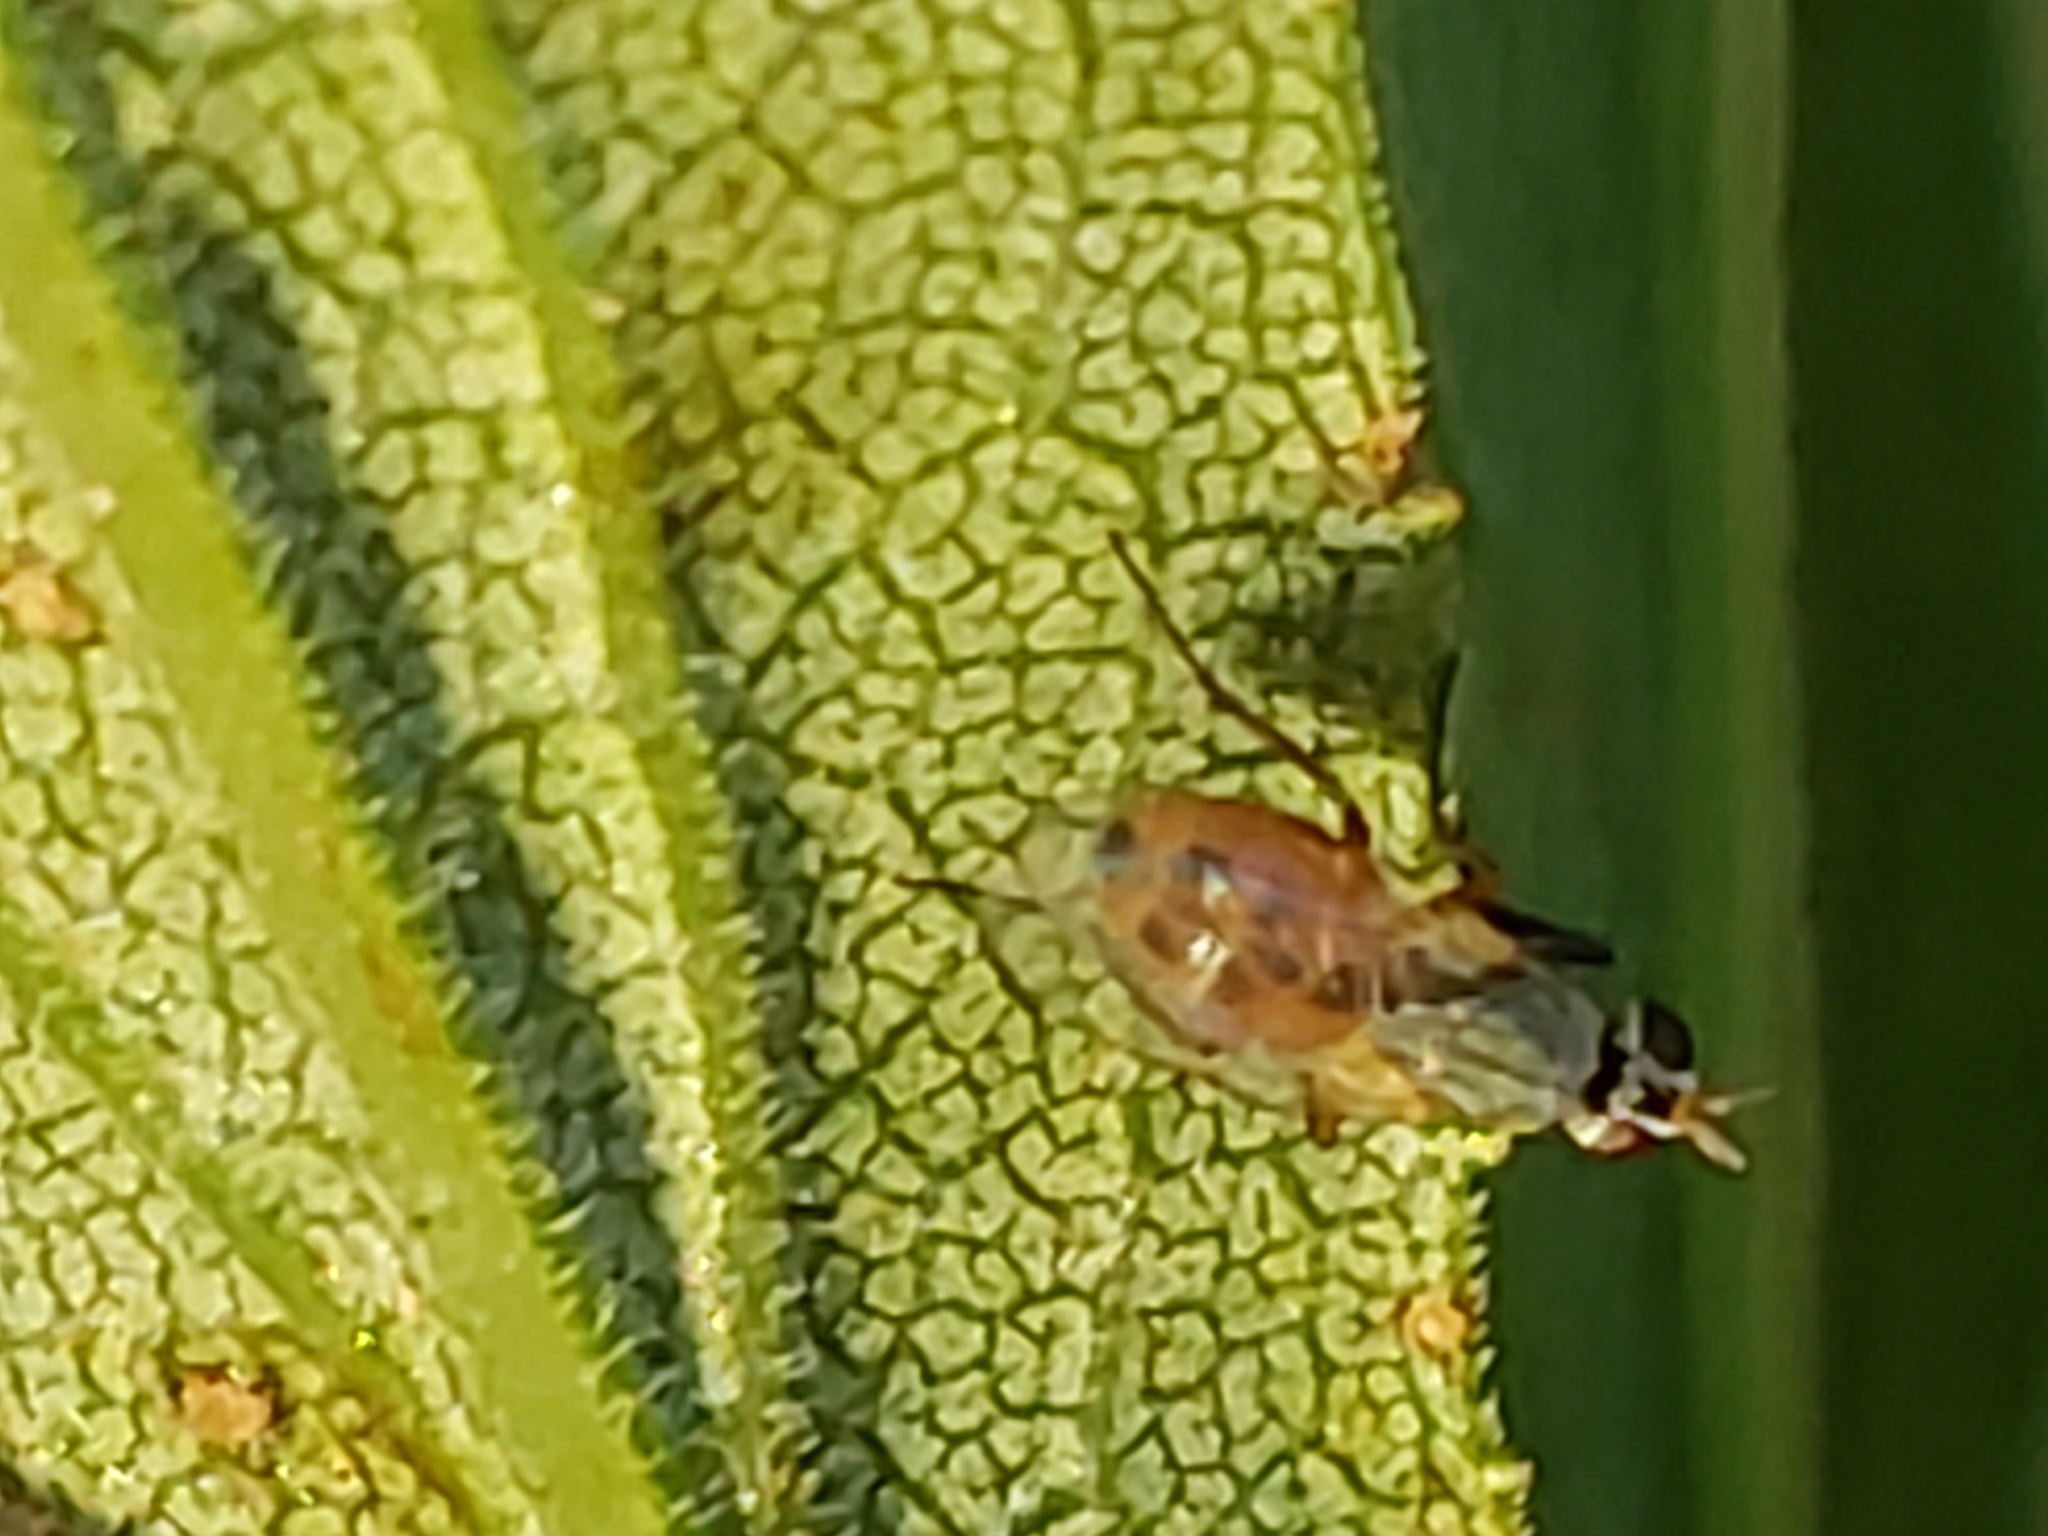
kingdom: Animalia
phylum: Arthropoda
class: Insecta
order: Diptera
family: Muscidae
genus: Atherigona
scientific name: Atherigona reversura
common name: Bermudagrass stem maggot
